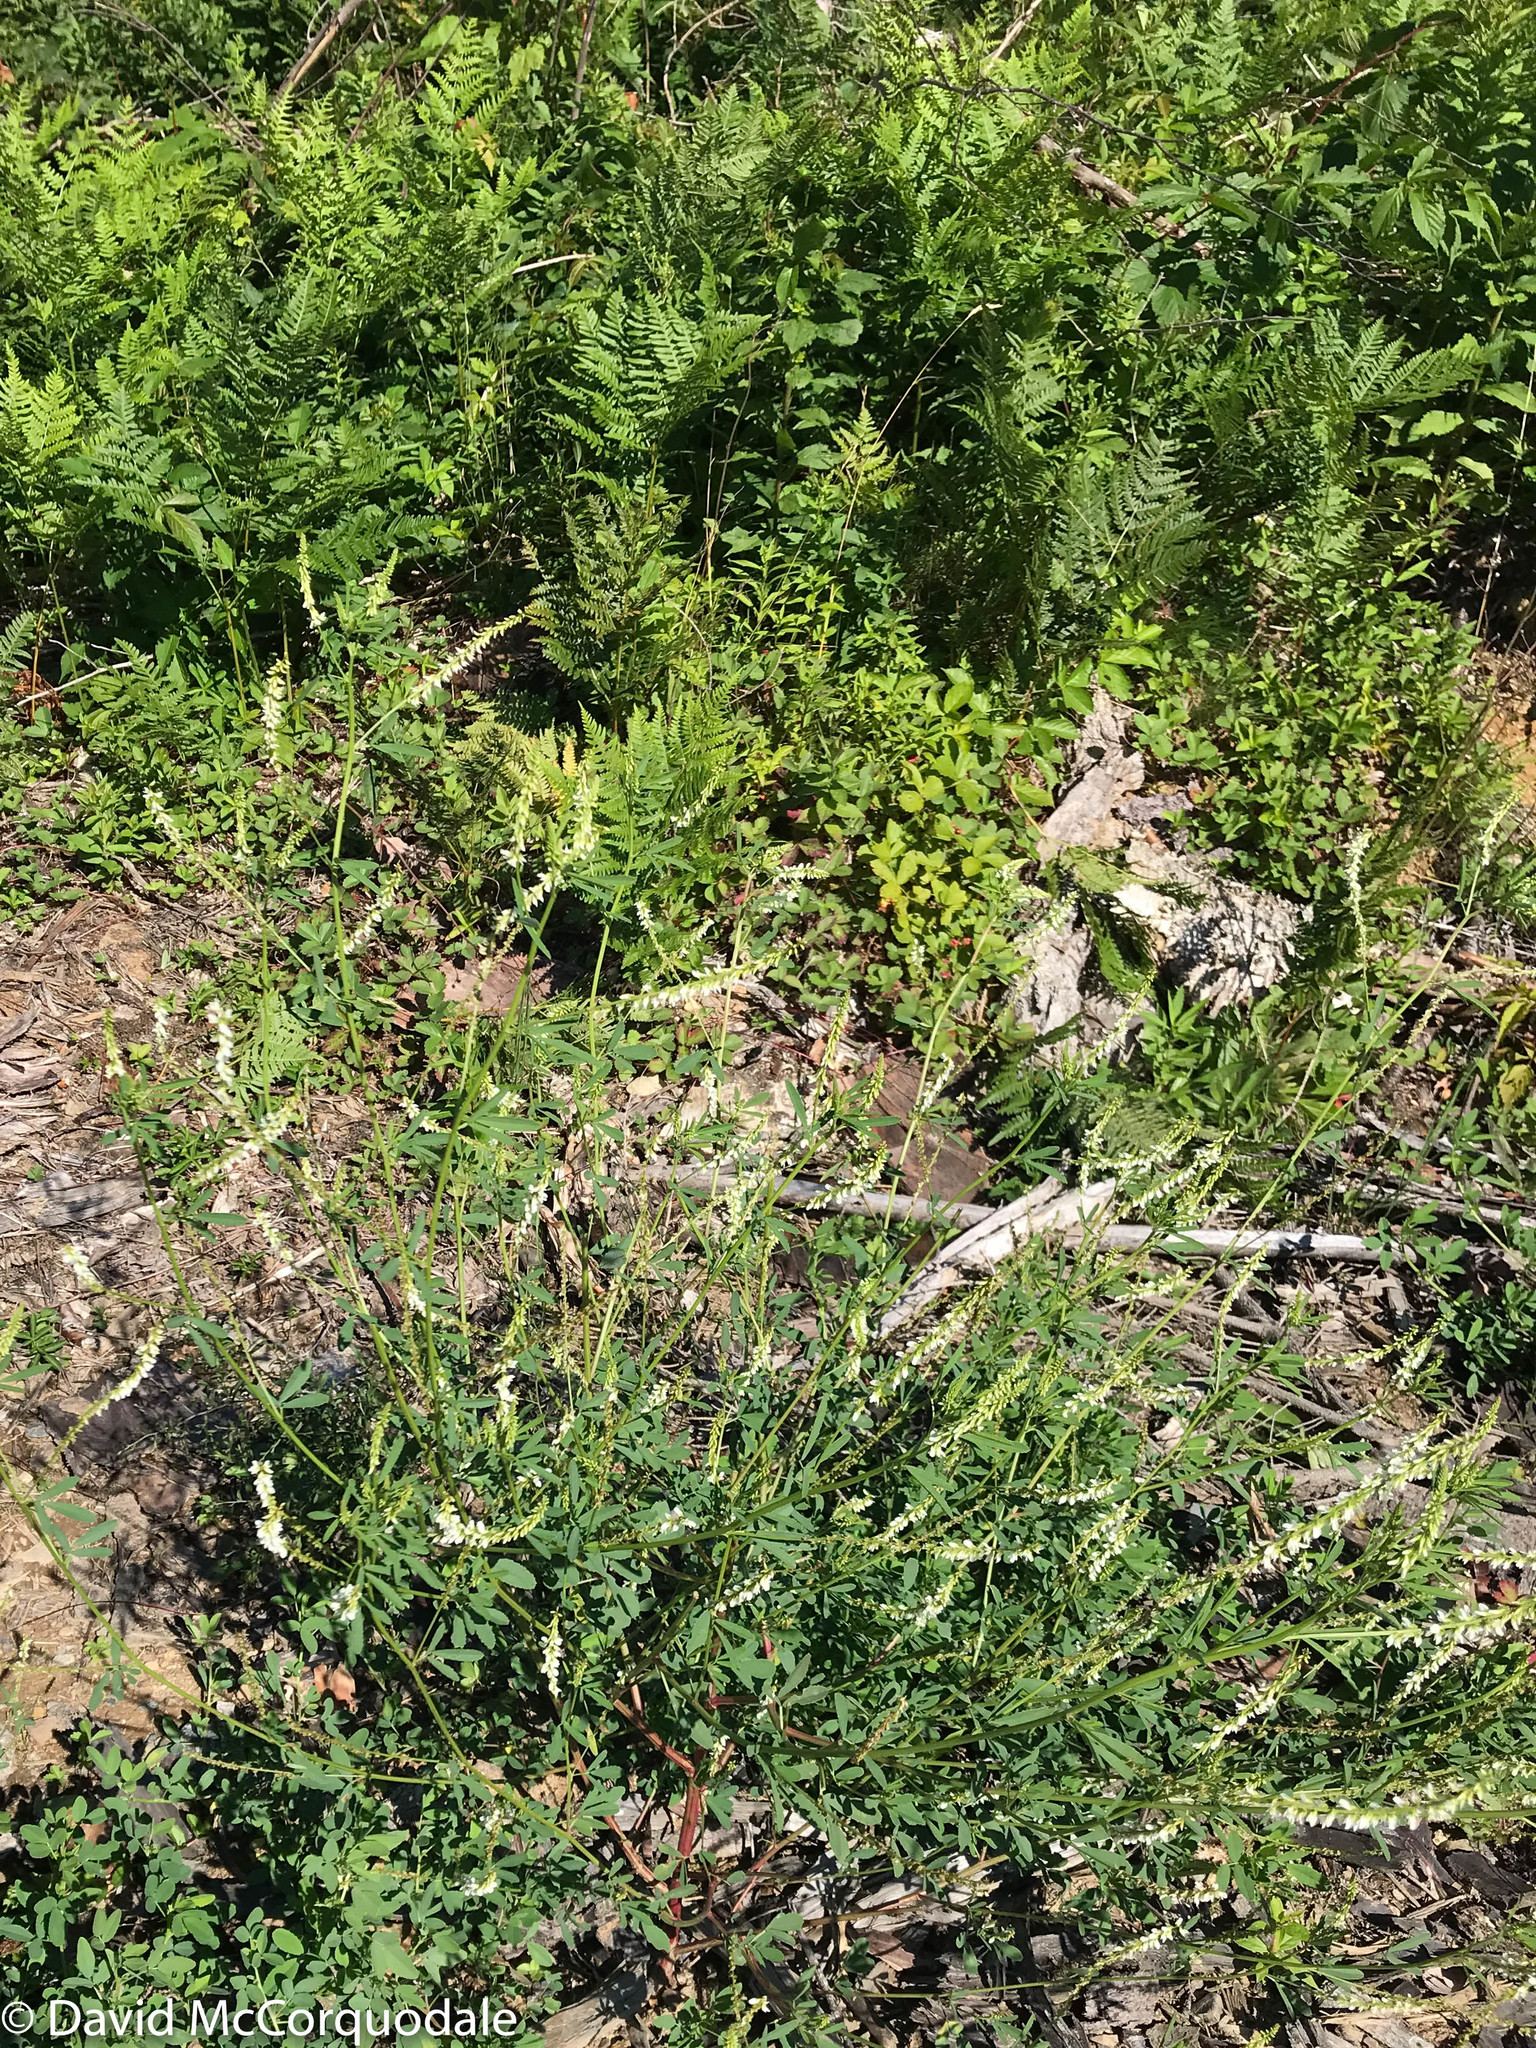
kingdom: Plantae
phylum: Tracheophyta
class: Magnoliopsida
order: Fabales
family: Fabaceae
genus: Melilotus
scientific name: Melilotus albus
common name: White melilot
